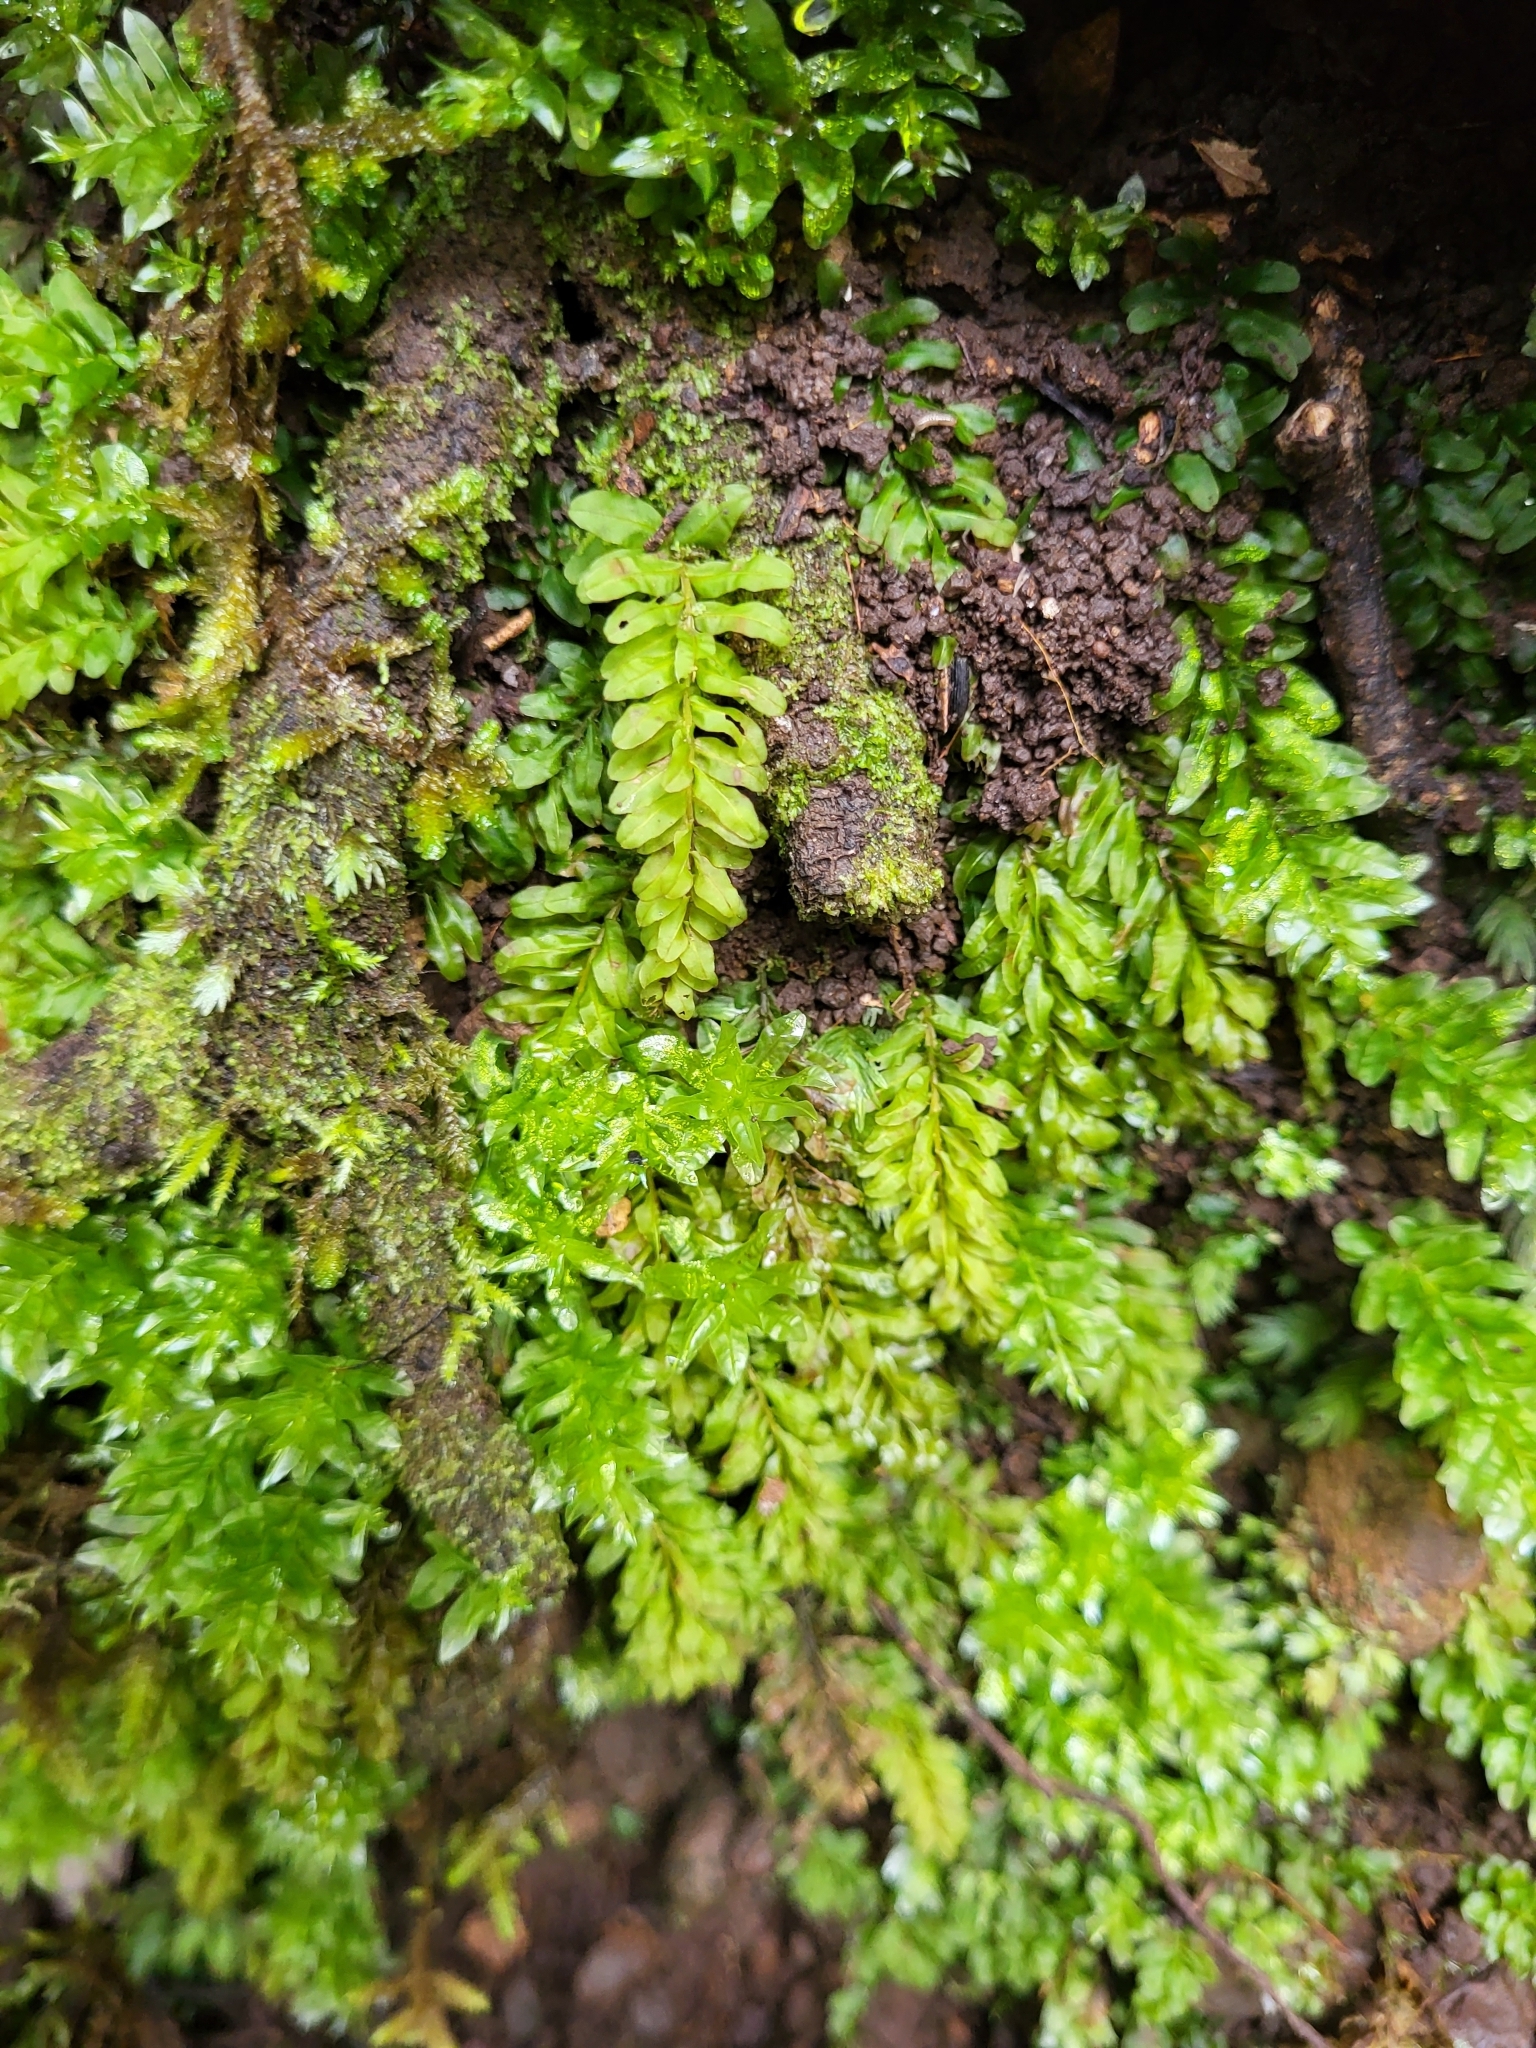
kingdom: Plantae
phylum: Bryophyta
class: Bryopsida
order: Bryales
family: Mniaceae
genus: Plagiomnium
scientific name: Plagiomnium undulatum
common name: Hart's-tongue thyme-moss
